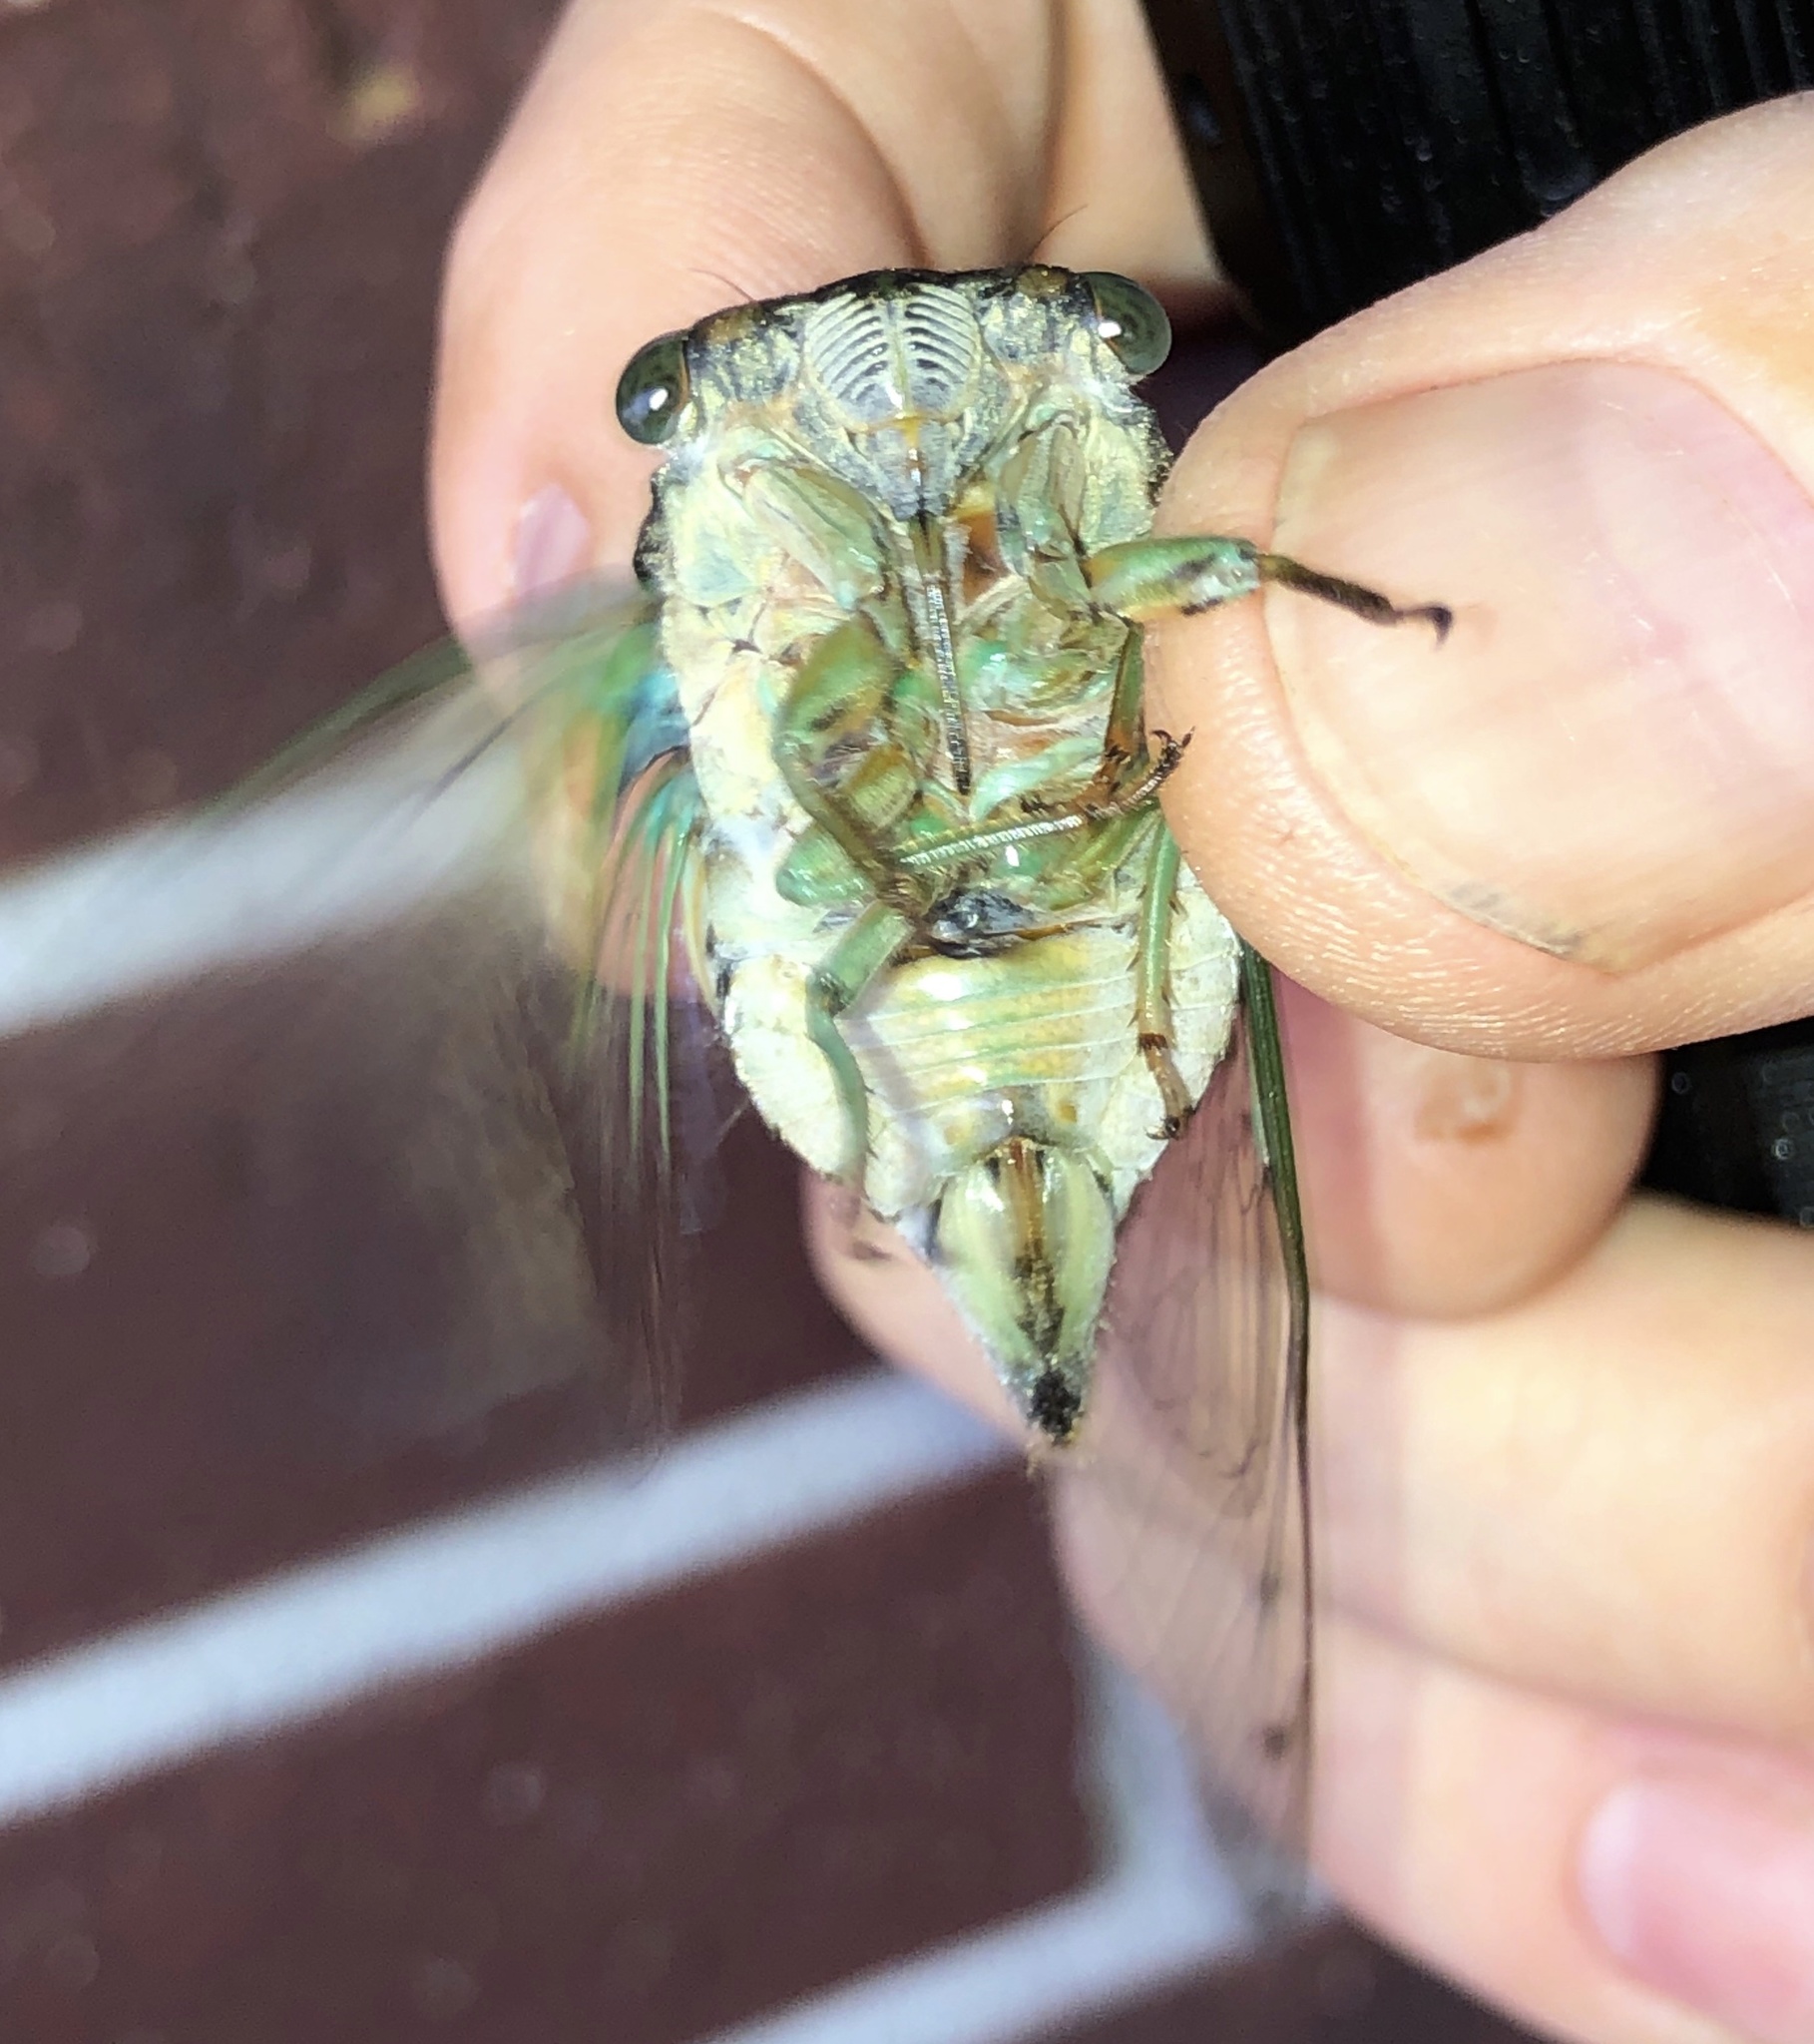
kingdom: Animalia
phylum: Arthropoda
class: Insecta
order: Hemiptera
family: Cicadidae
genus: Neotibicen
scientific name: Neotibicen tibicen
